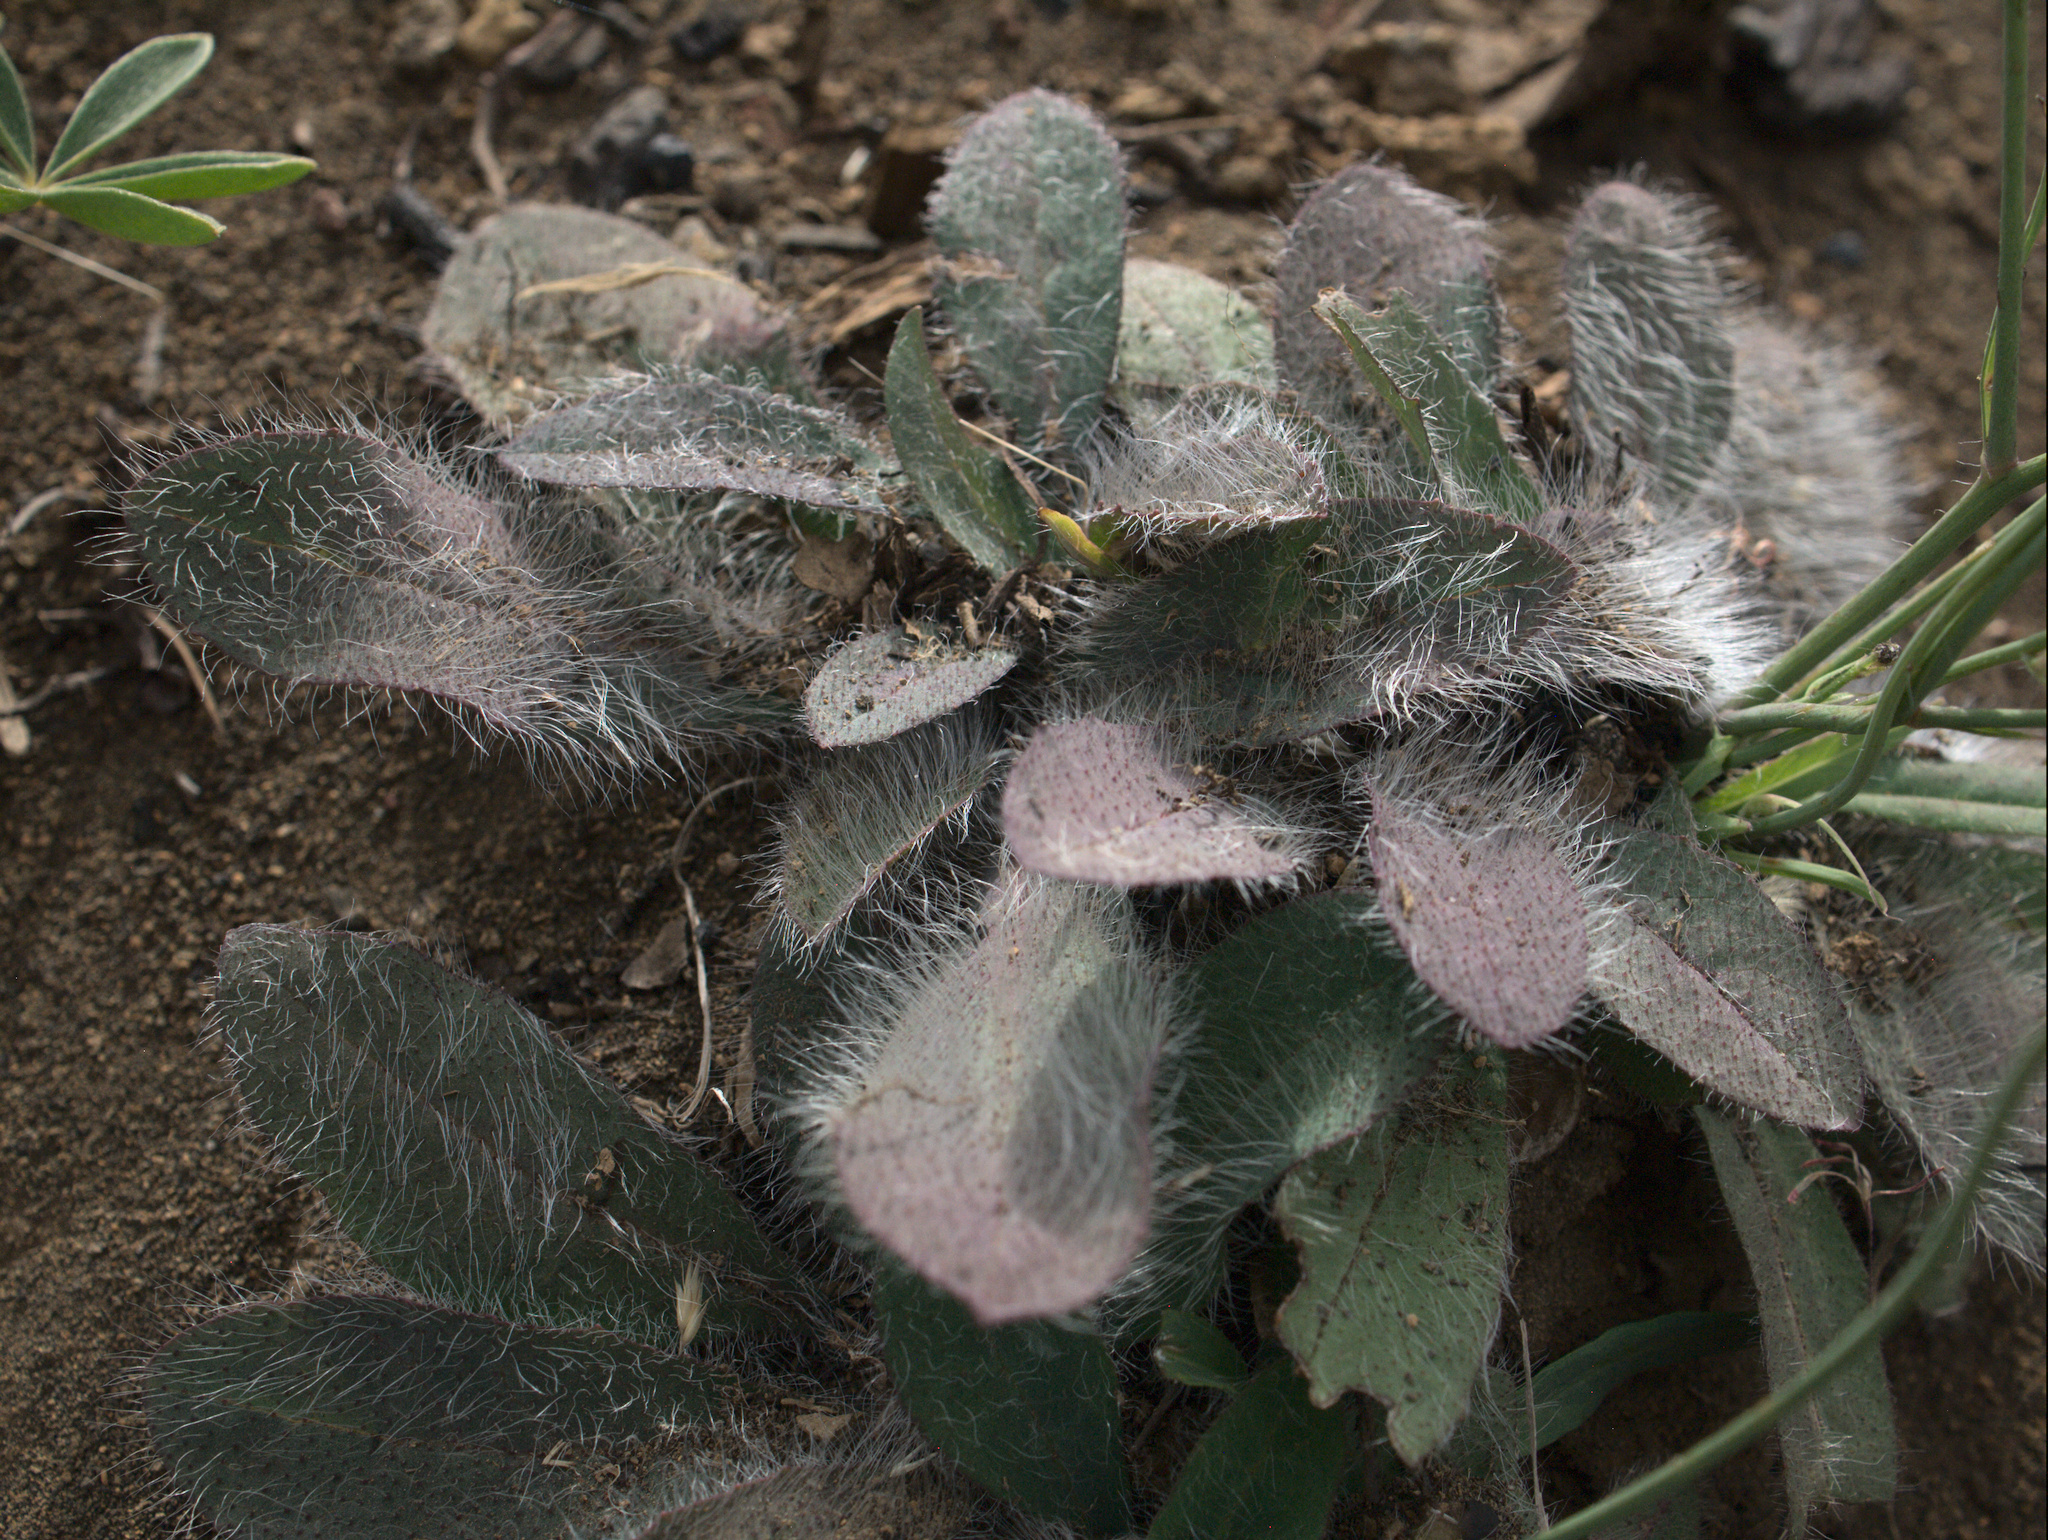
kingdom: Plantae
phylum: Tracheophyta
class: Magnoliopsida
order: Asterales
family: Asteraceae
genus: Hieracium
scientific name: Hieracium albiflorum
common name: White hawkweed
